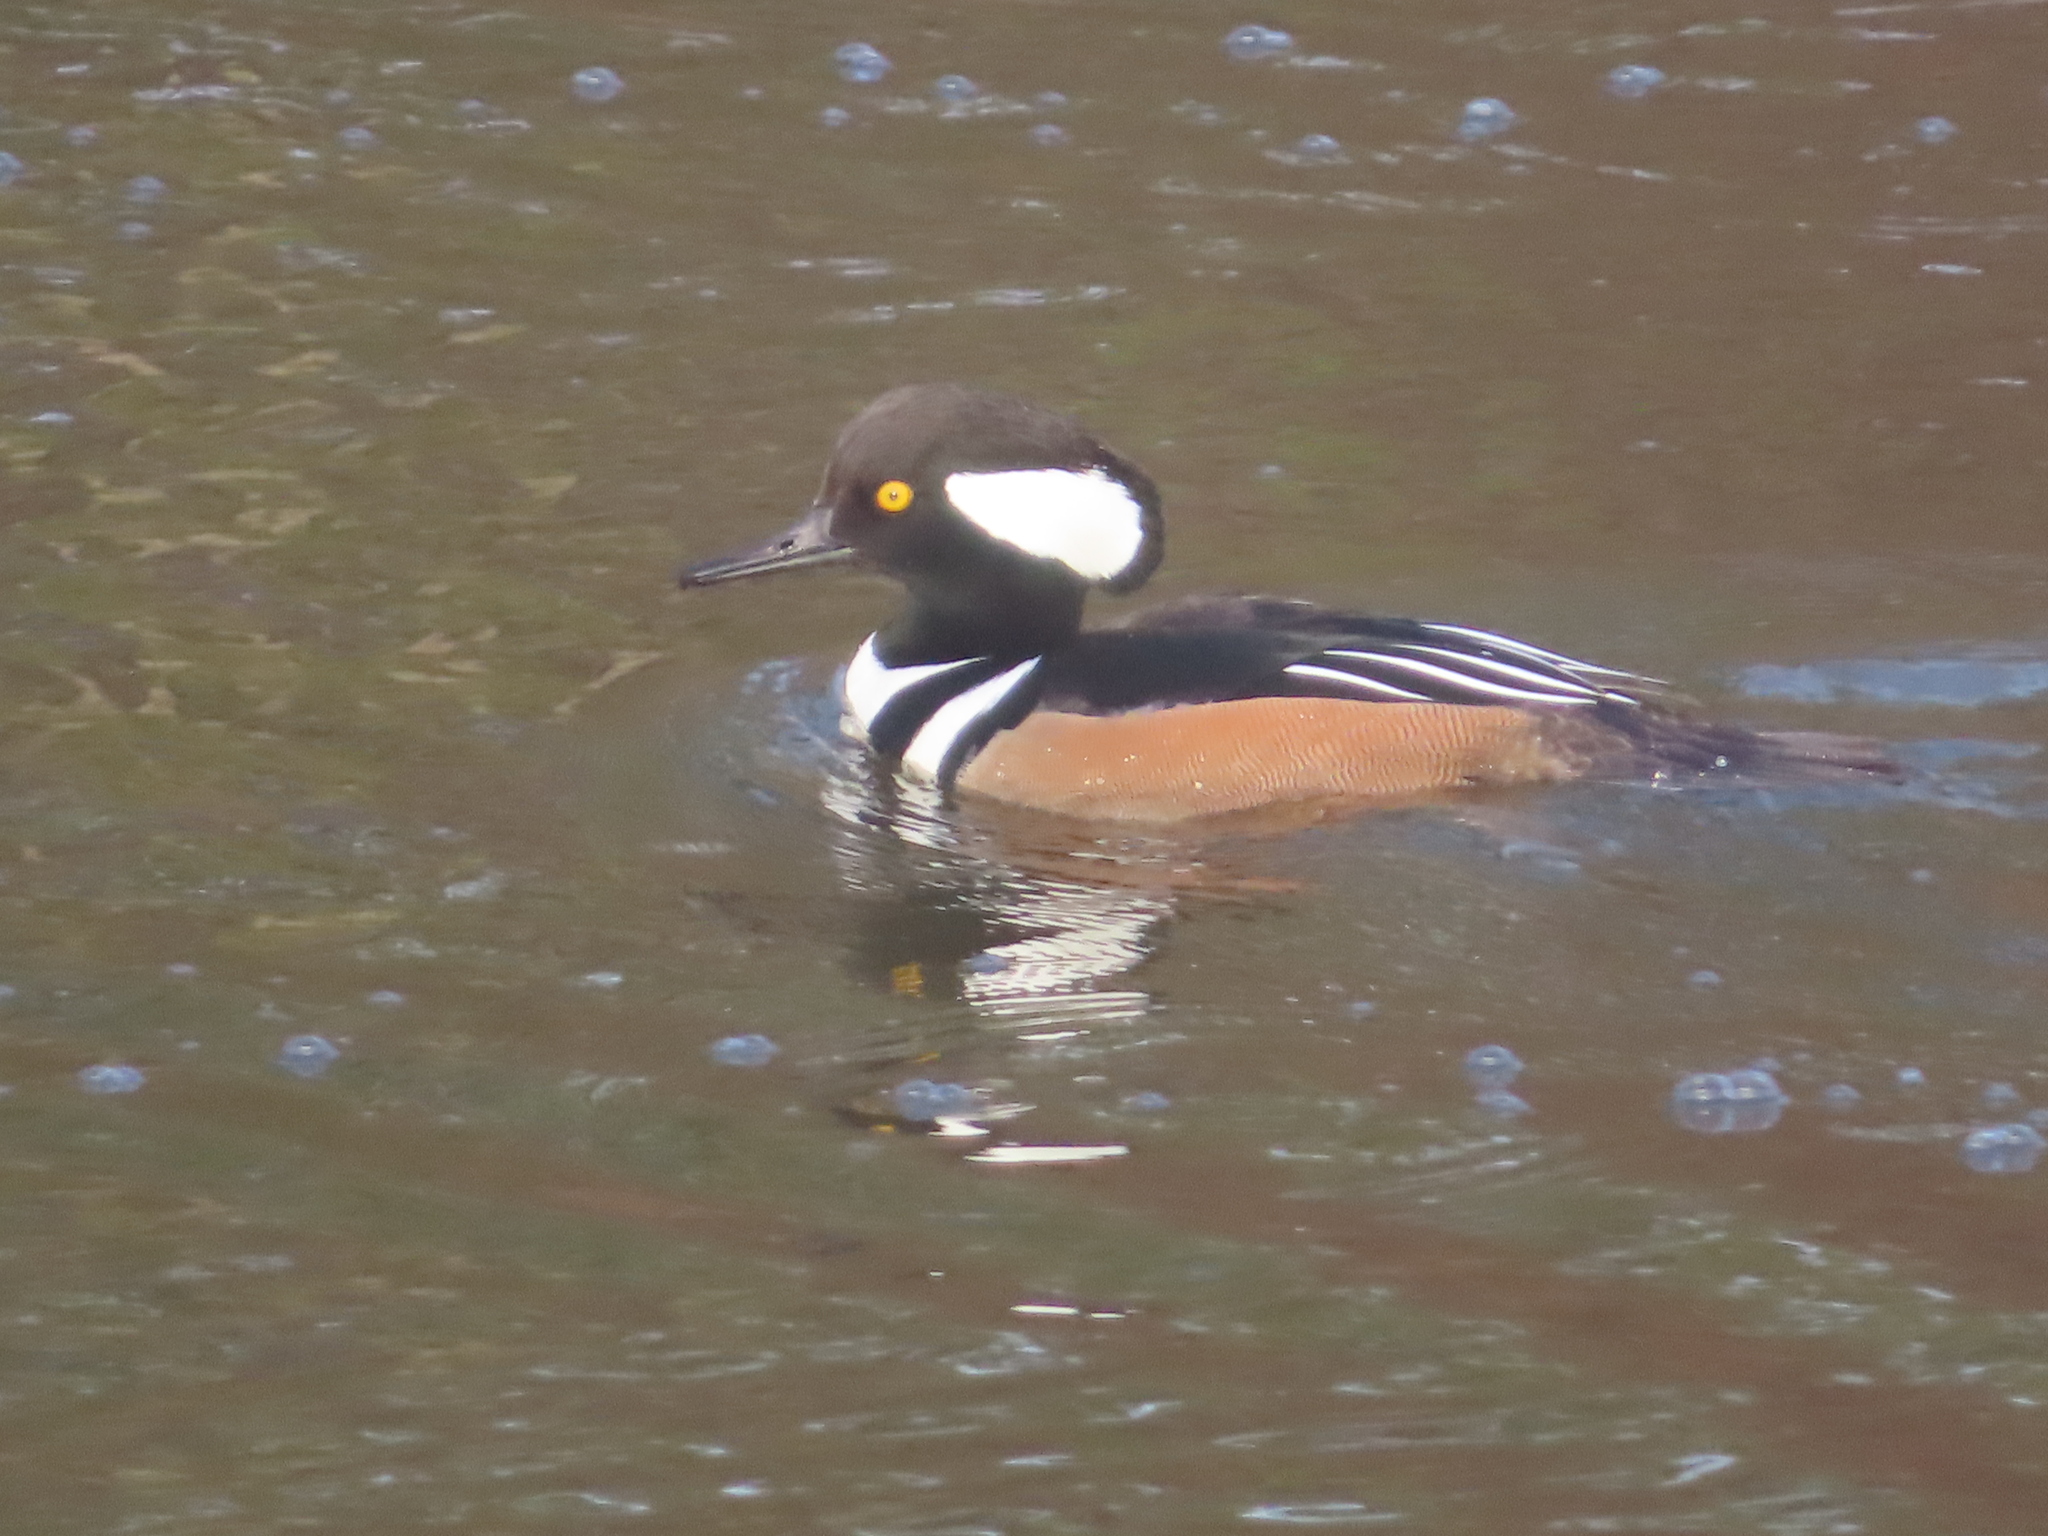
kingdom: Animalia
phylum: Chordata
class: Aves
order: Anseriformes
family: Anatidae
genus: Lophodytes
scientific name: Lophodytes cucullatus
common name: Hooded merganser
